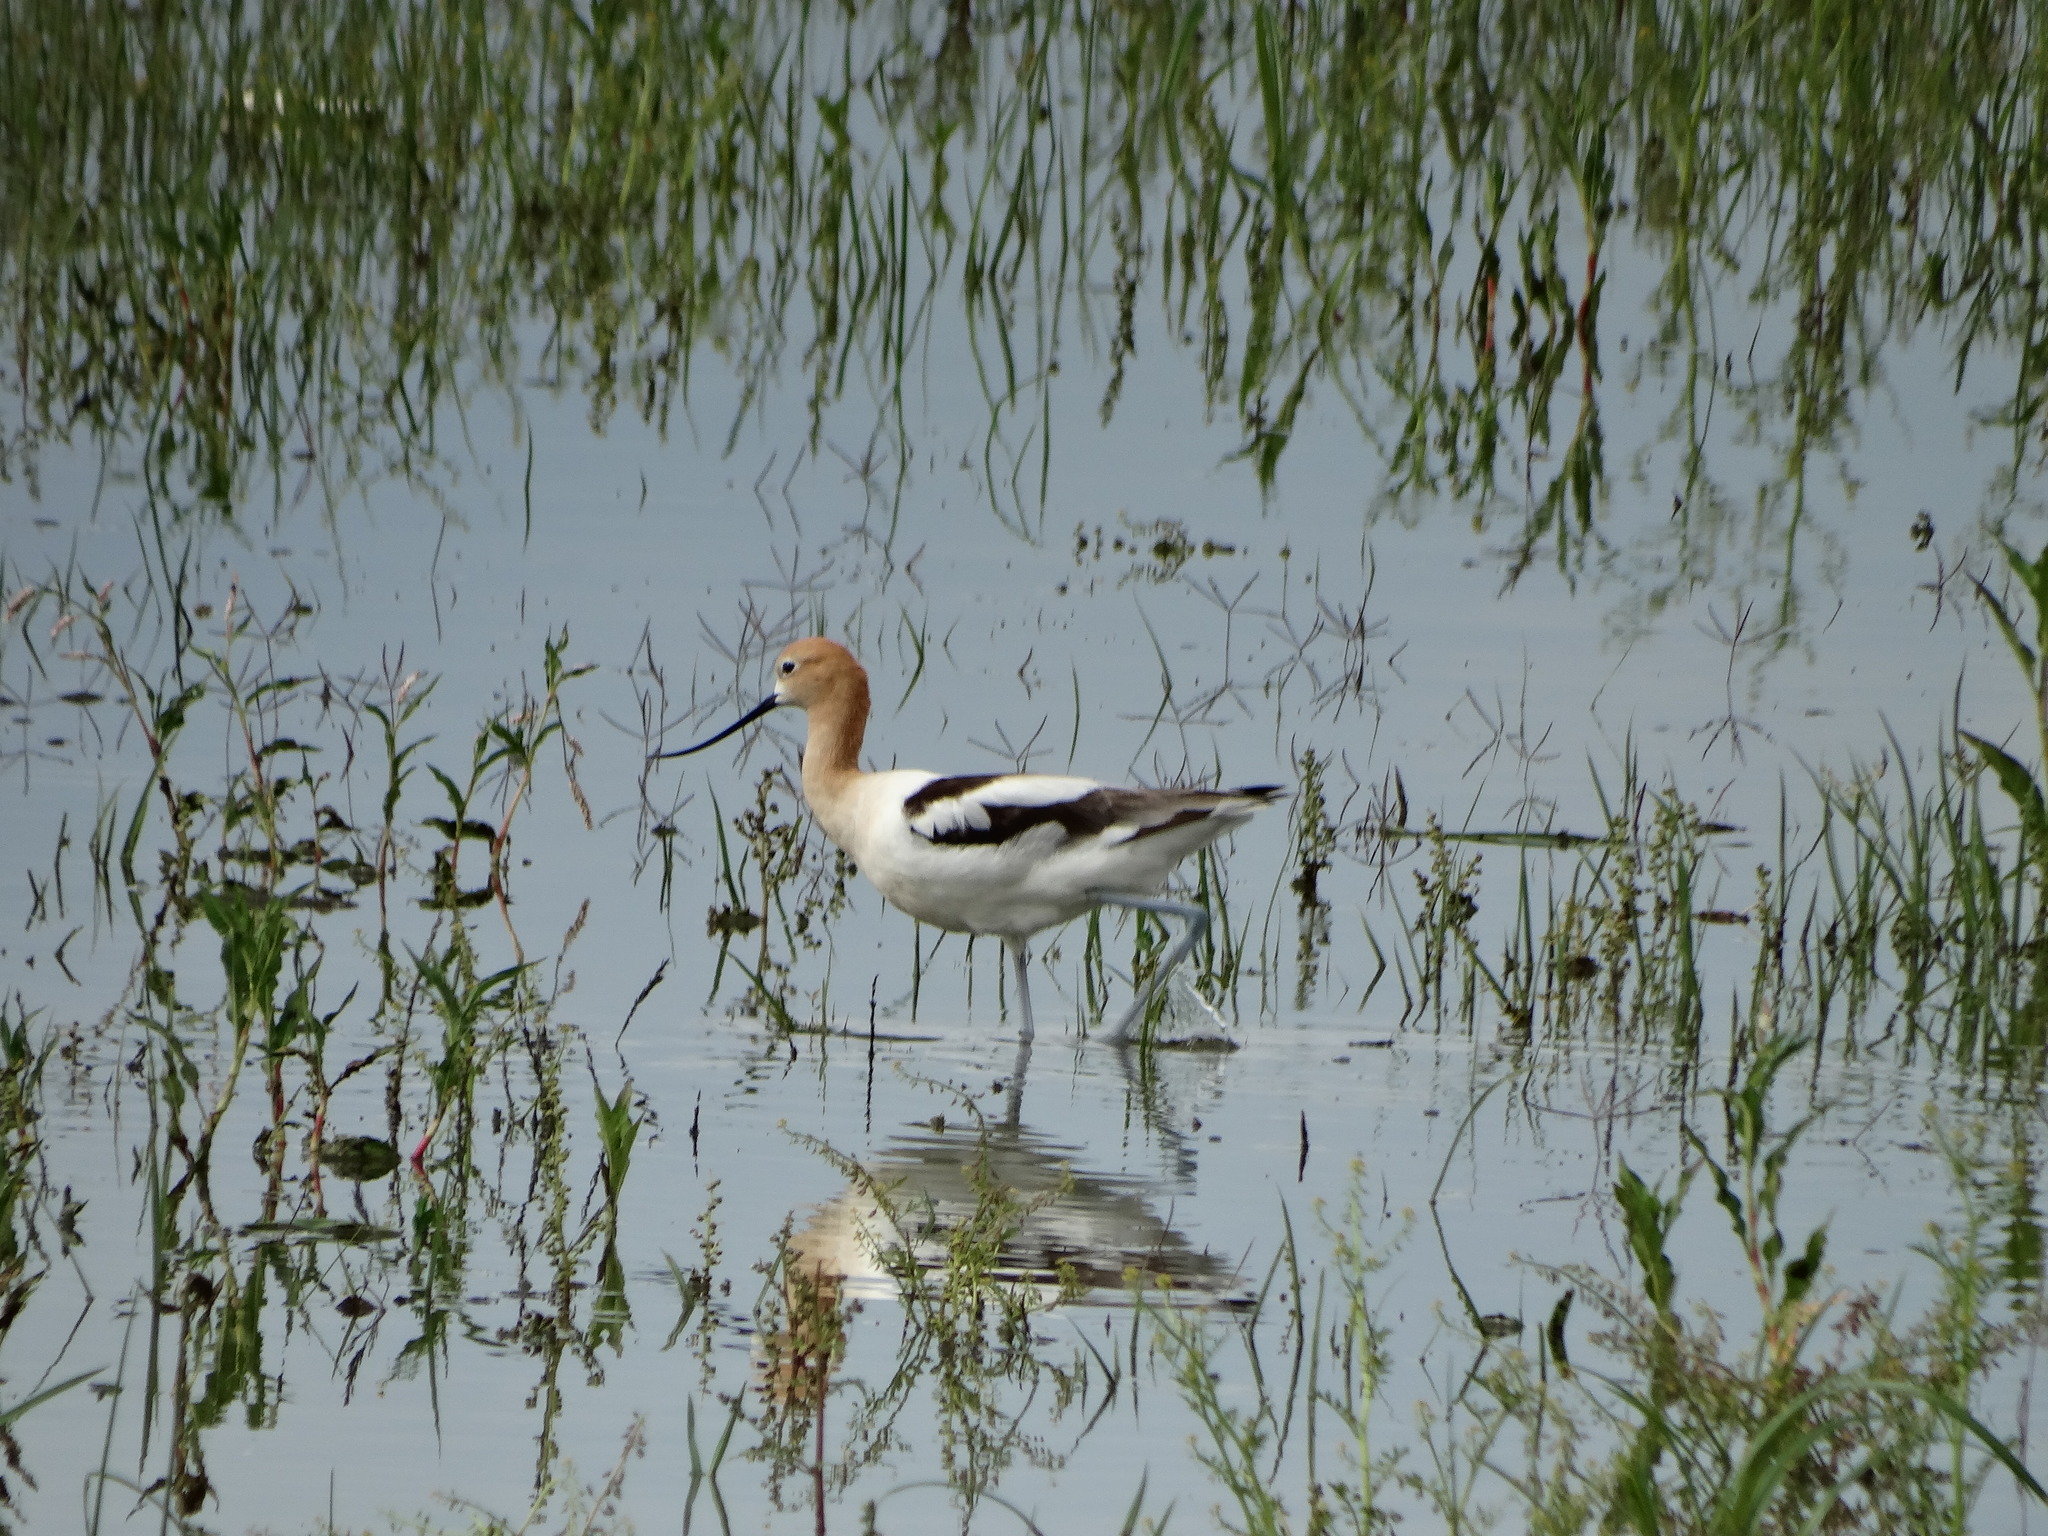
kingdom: Animalia
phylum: Chordata
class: Aves
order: Charadriiformes
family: Recurvirostridae
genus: Recurvirostra
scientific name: Recurvirostra americana
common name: American avocet
